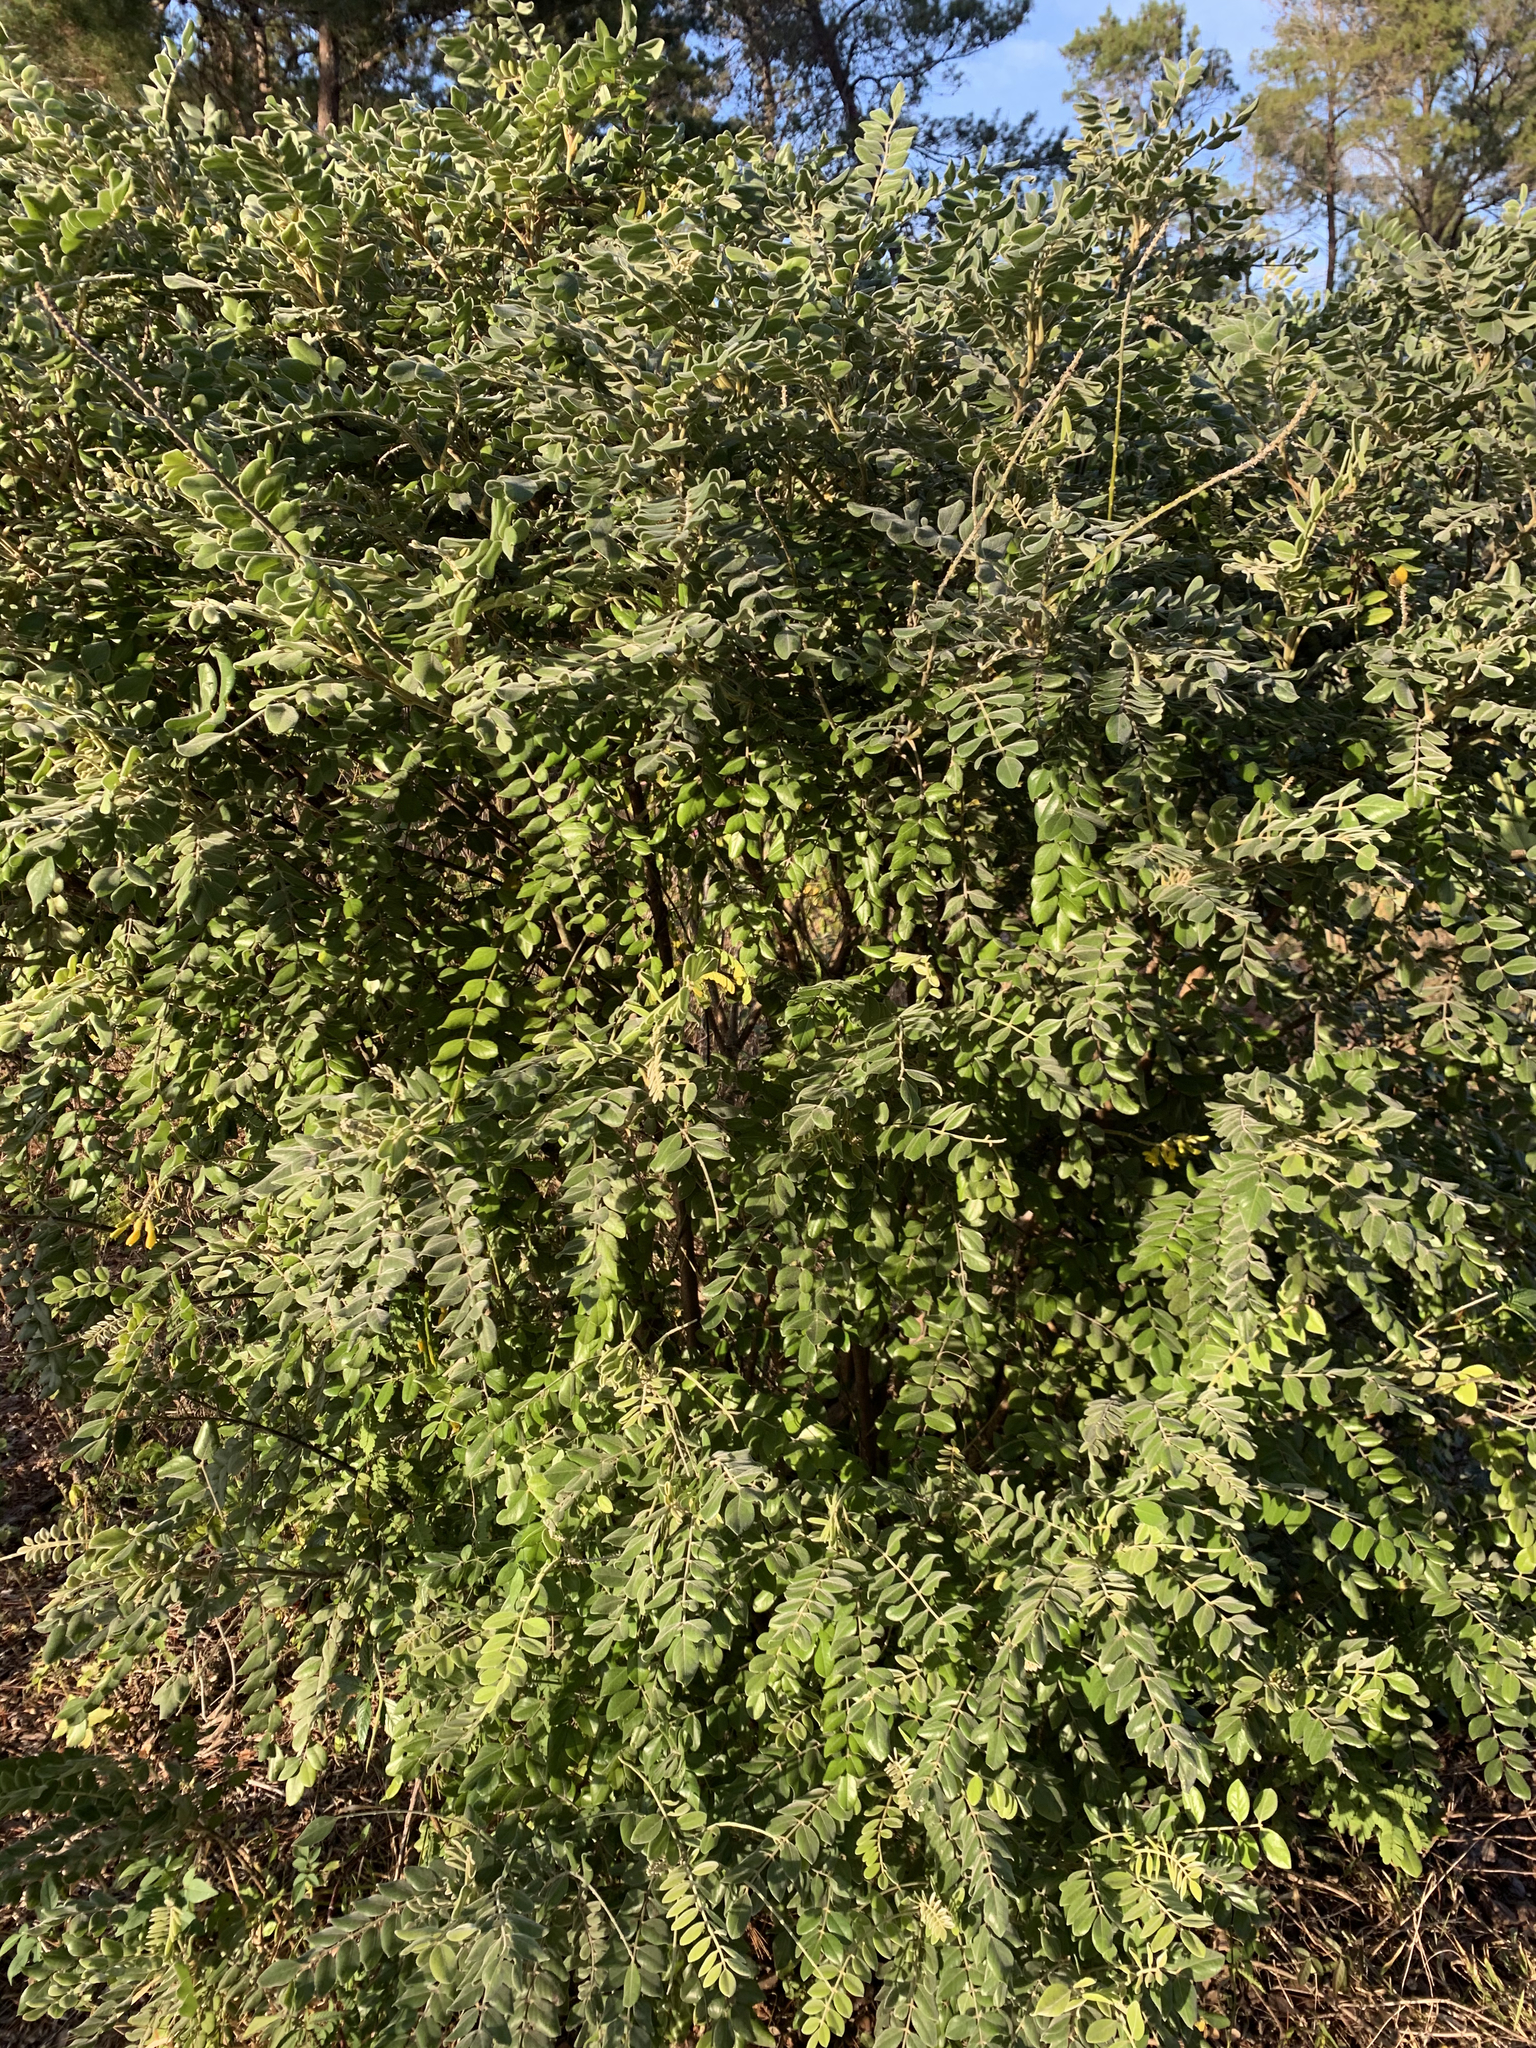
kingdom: Plantae
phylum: Tracheophyta
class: Magnoliopsida
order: Fabales
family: Fabaceae
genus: Sophora
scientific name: Sophora tomentosa
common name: Yellow necklacepod
